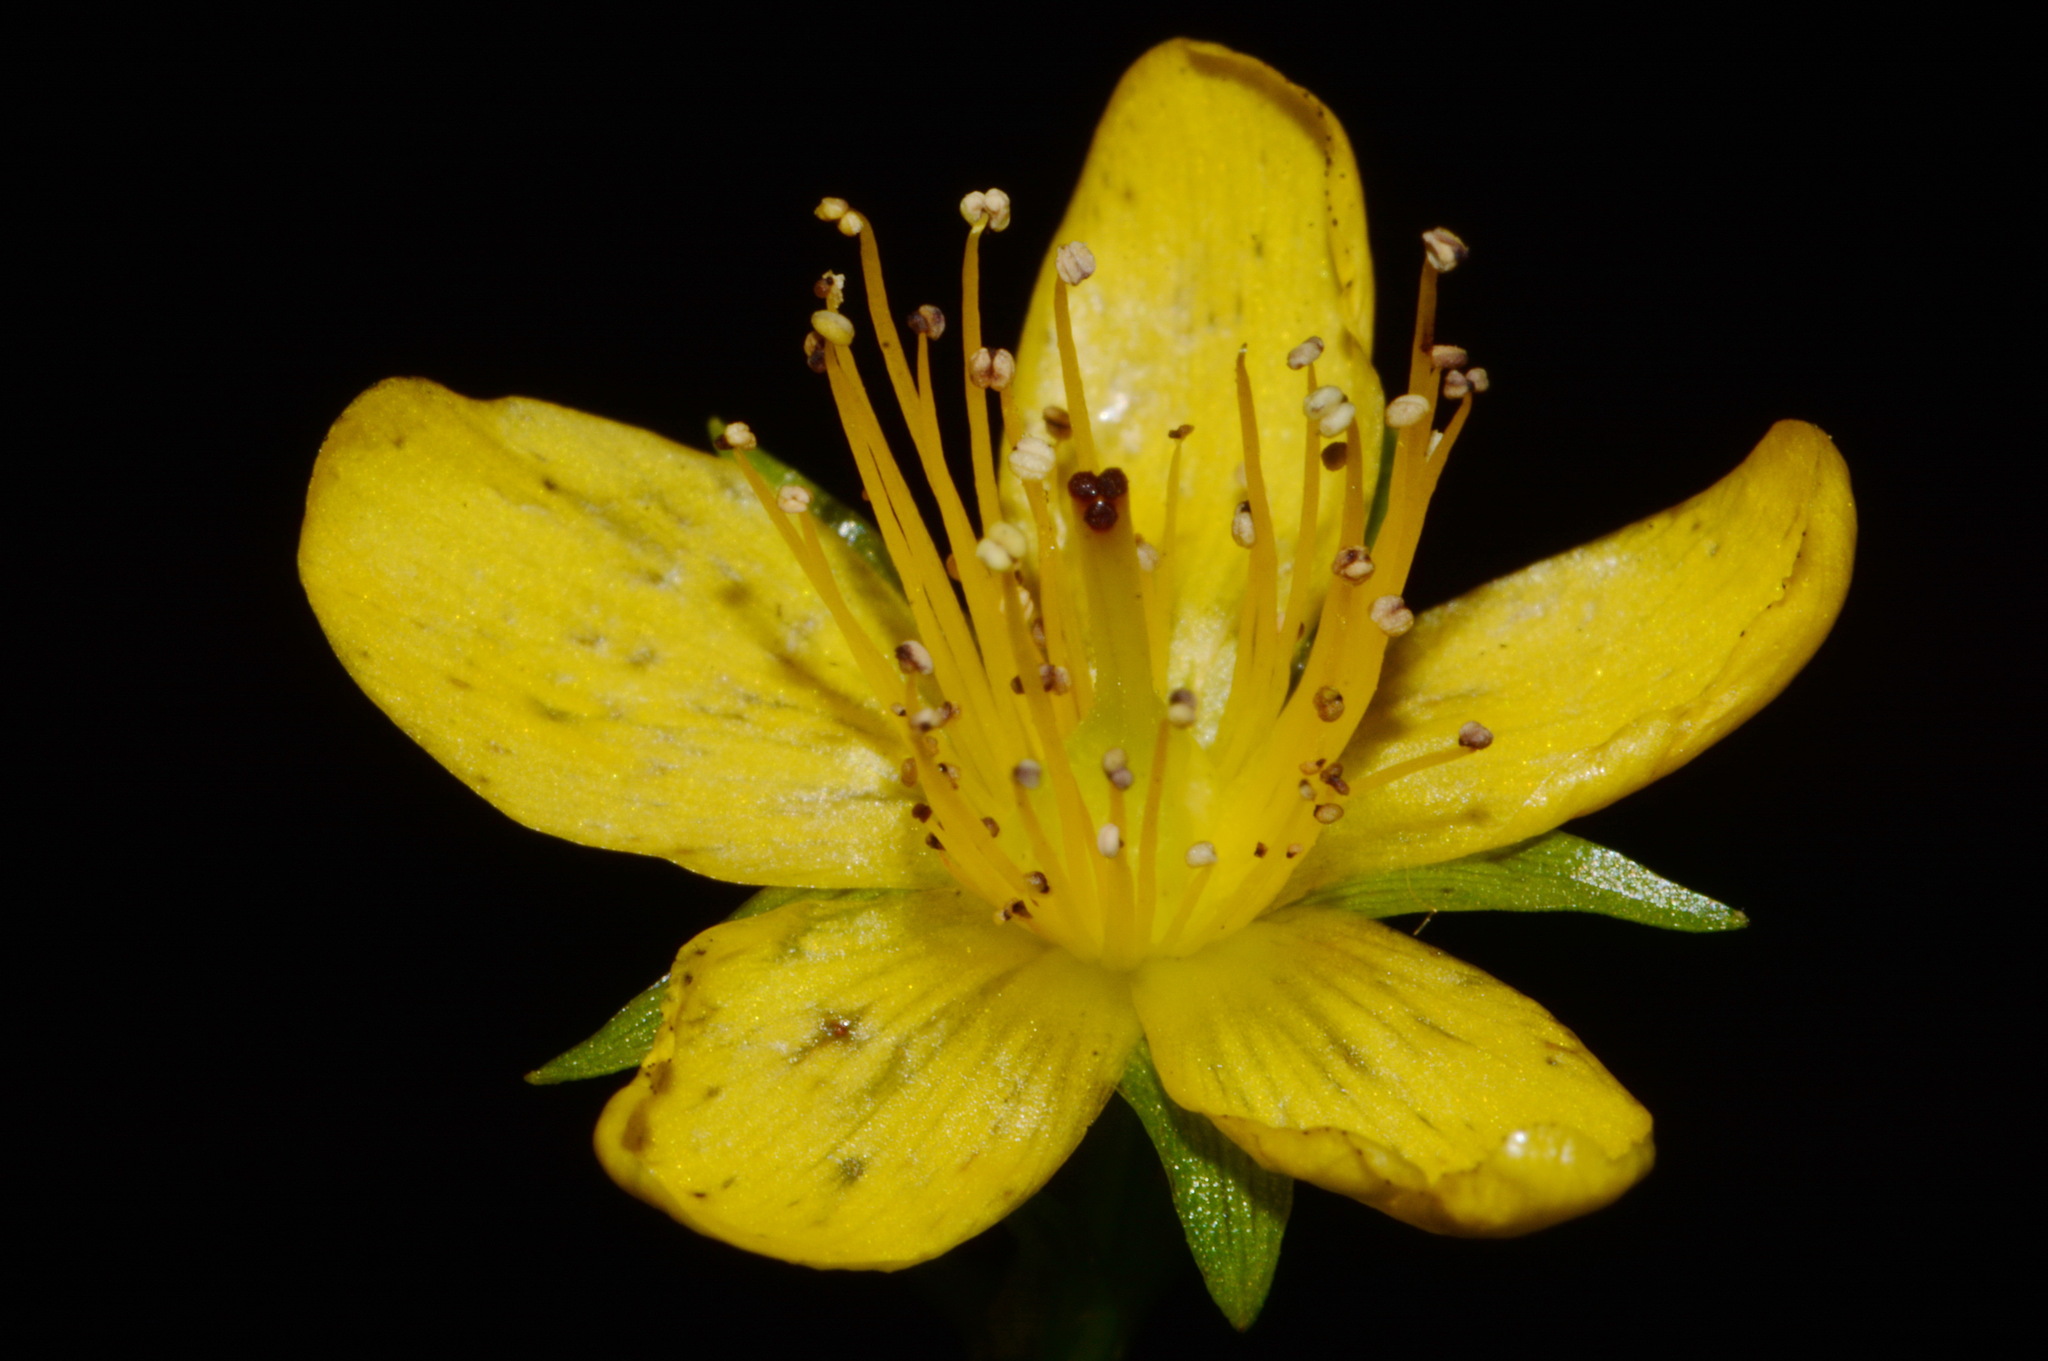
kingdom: Plantae
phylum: Tracheophyta
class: Magnoliopsida
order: Malpighiales
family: Hypericaceae
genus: Hypericum
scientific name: Hypericum mitchellianum
